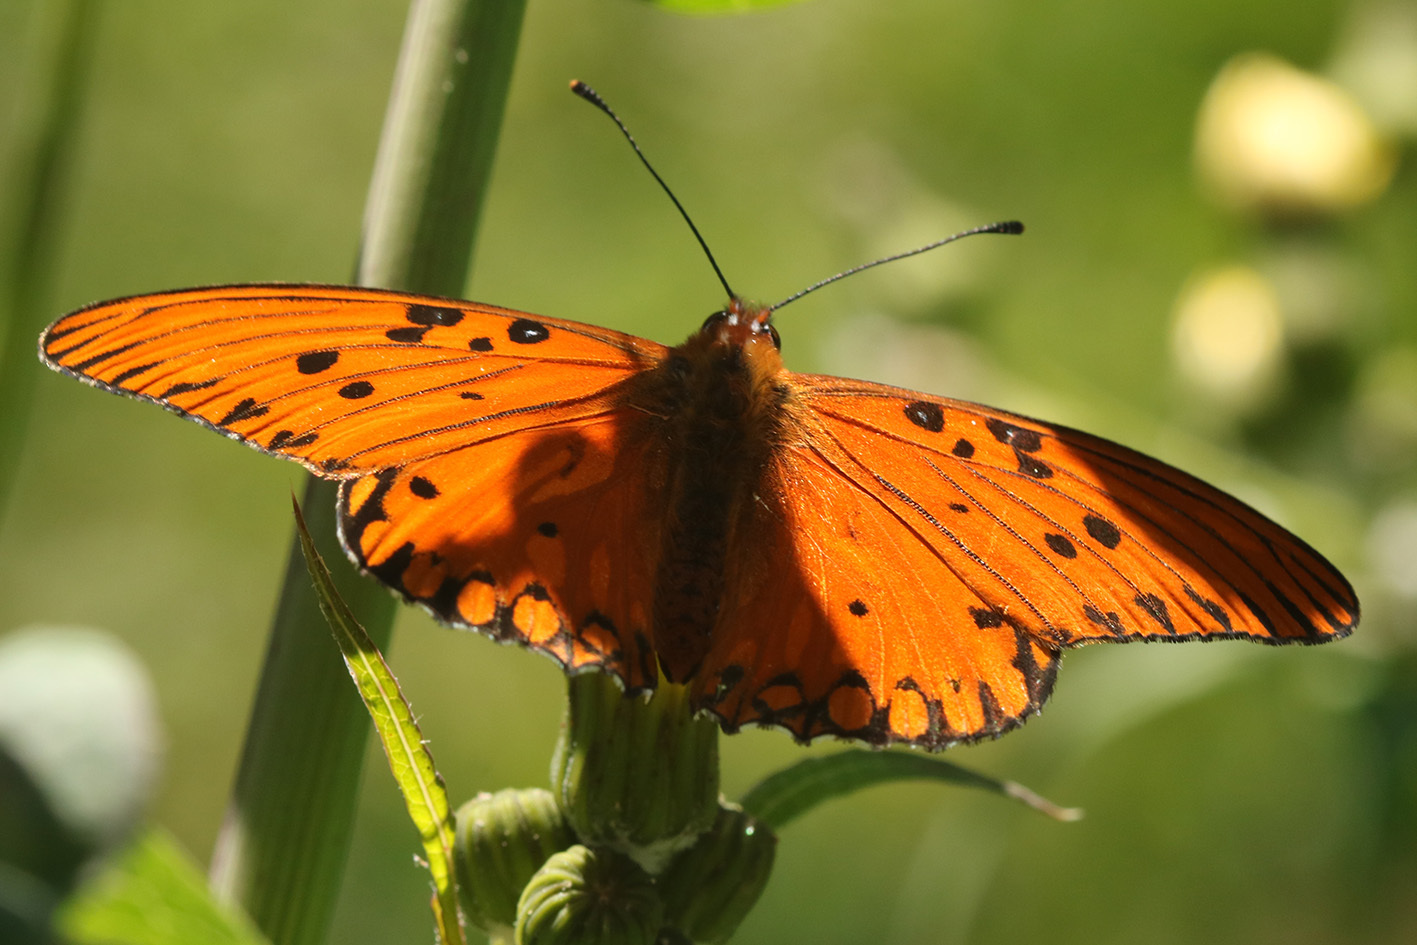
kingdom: Animalia
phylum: Arthropoda
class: Insecta
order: Lepidoptera
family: Nymphalidae
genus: Dione
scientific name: Dione vanillae
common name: Gulf fritillary
